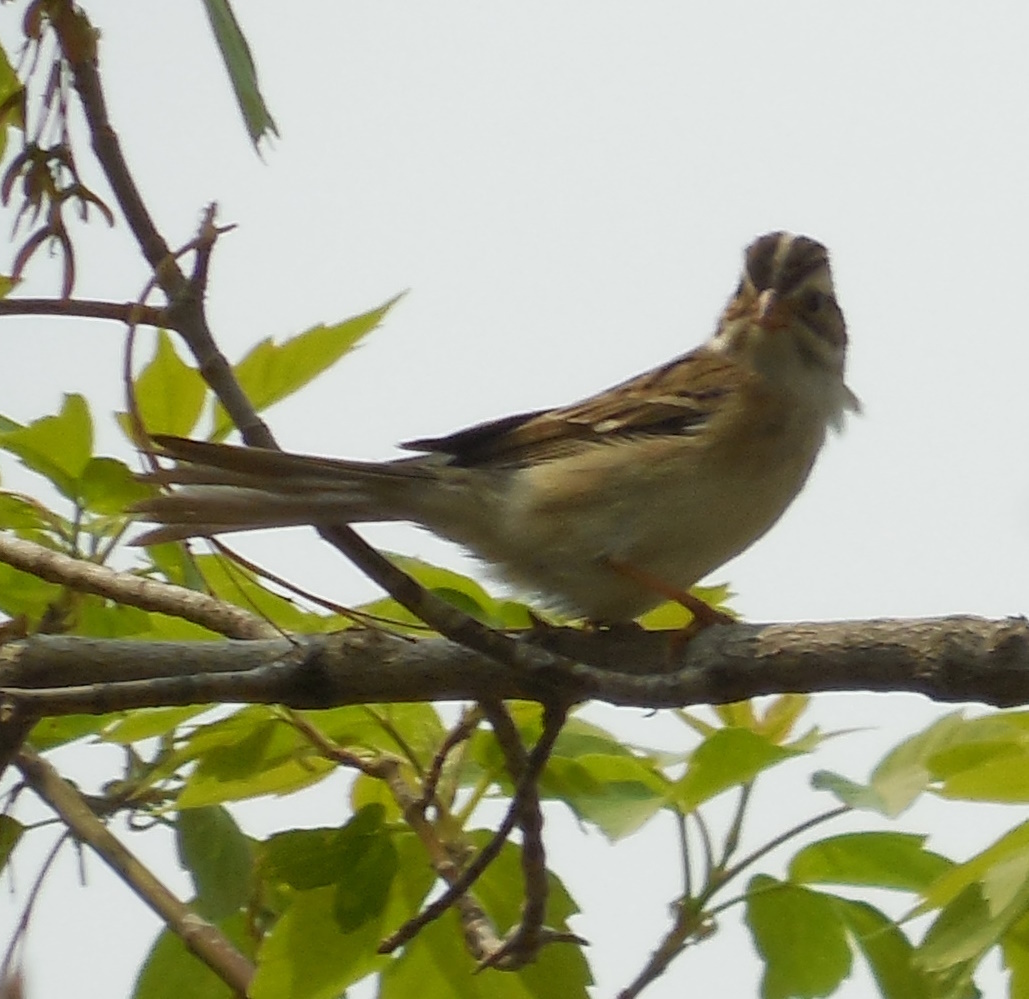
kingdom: Animalia
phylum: Chordata
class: Aves
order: Passeriformes
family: Passerellidae
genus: Spizella
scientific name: Spizella pallida
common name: Clay-colored sparrow
